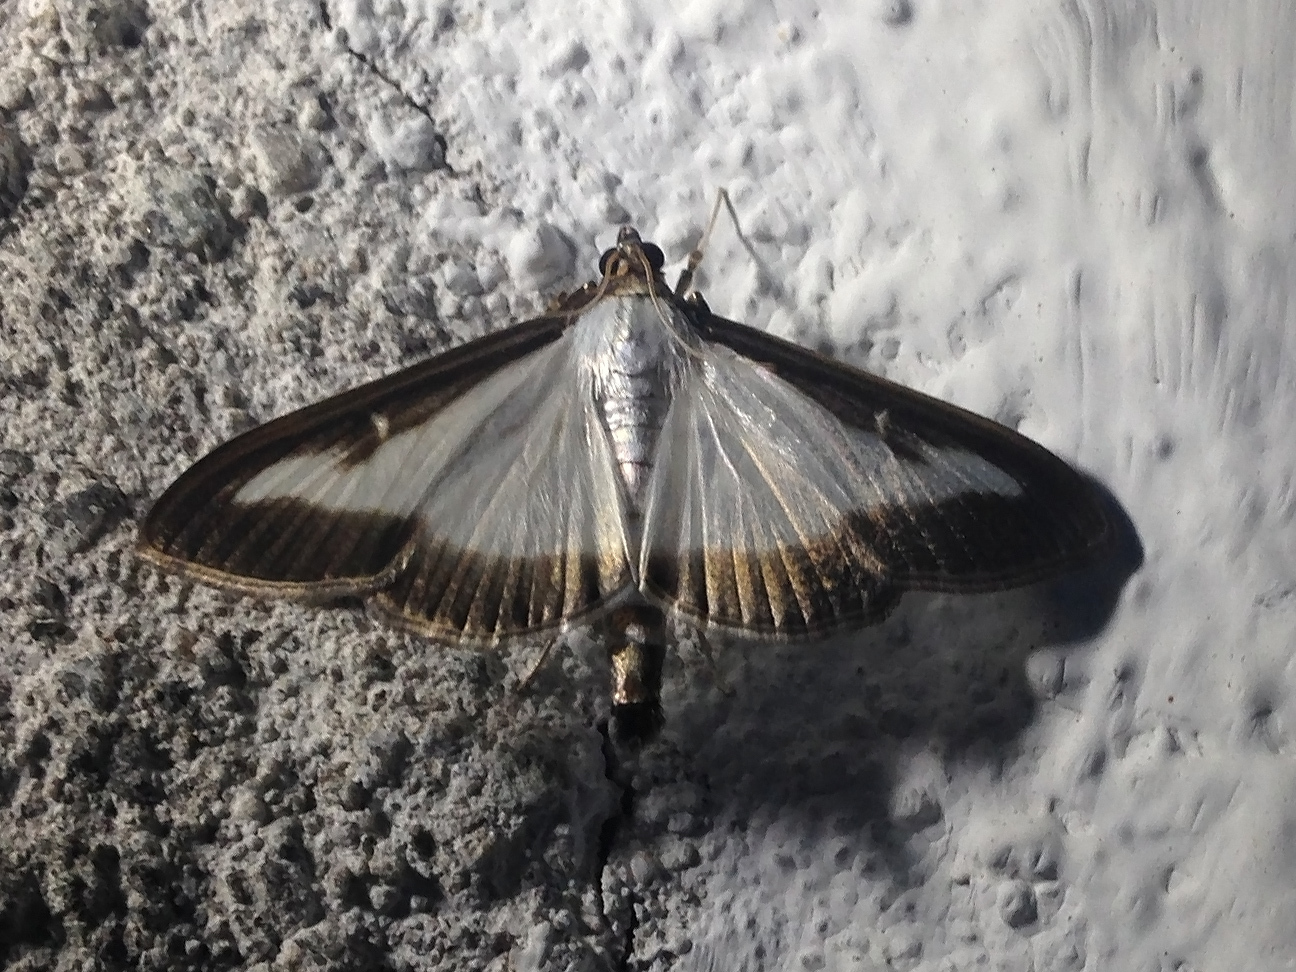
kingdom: Animalia
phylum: Arthropoda
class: Insecta
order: Lepidoptera
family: Crambidae
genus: Cydalima
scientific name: Cydalima perspectalis
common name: Box tree moth
